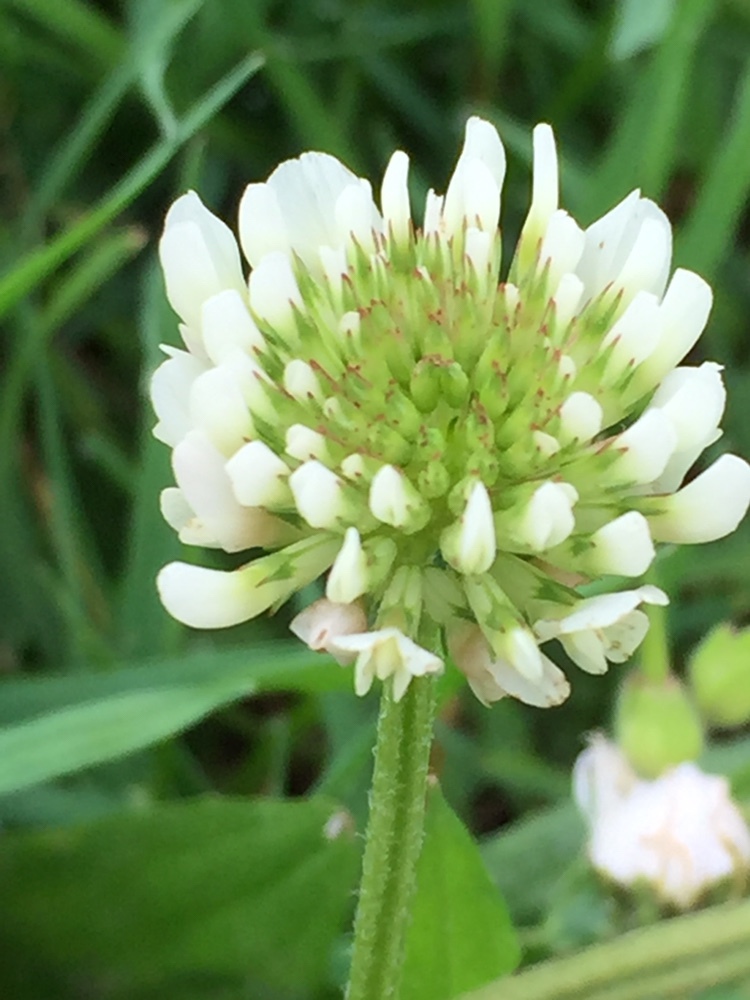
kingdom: Plantae
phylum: Tracheophyta
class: Magnoliopsida
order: Fabales
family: Fabaceae
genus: Trifolium
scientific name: Trifolium repens
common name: White clover
